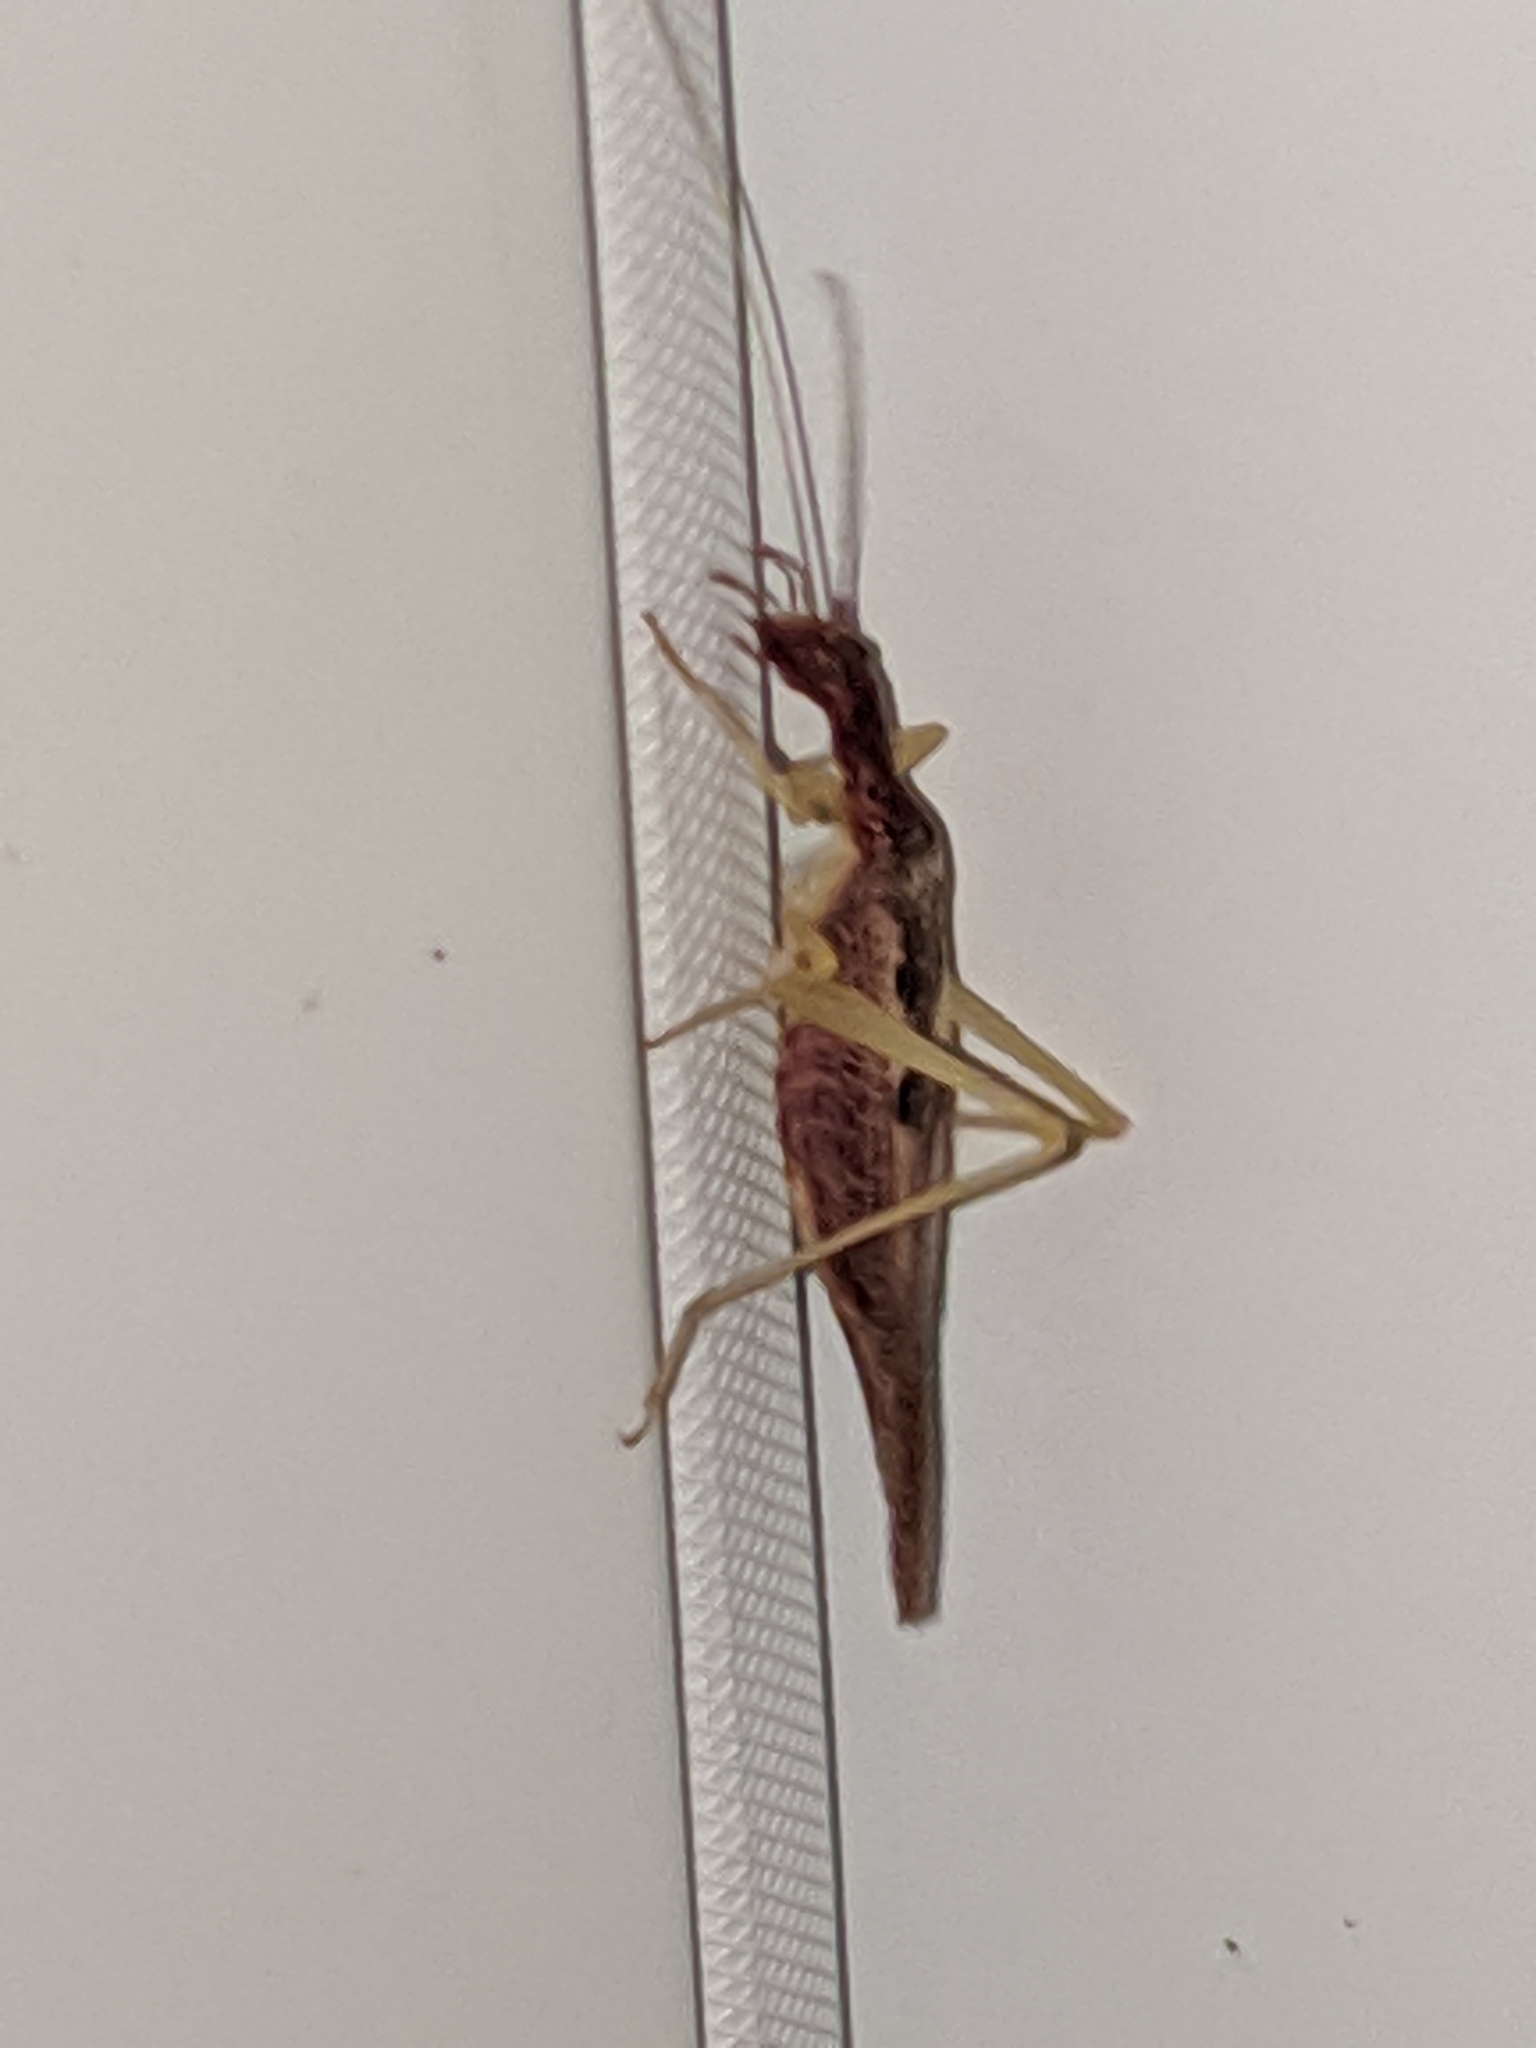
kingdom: Animalia
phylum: Arthropoda
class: Insecta
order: Orthoptera
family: Gryllidae
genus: Neoxabea
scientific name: Neoxabea bipunctata
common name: Two-spotted tree cricket
